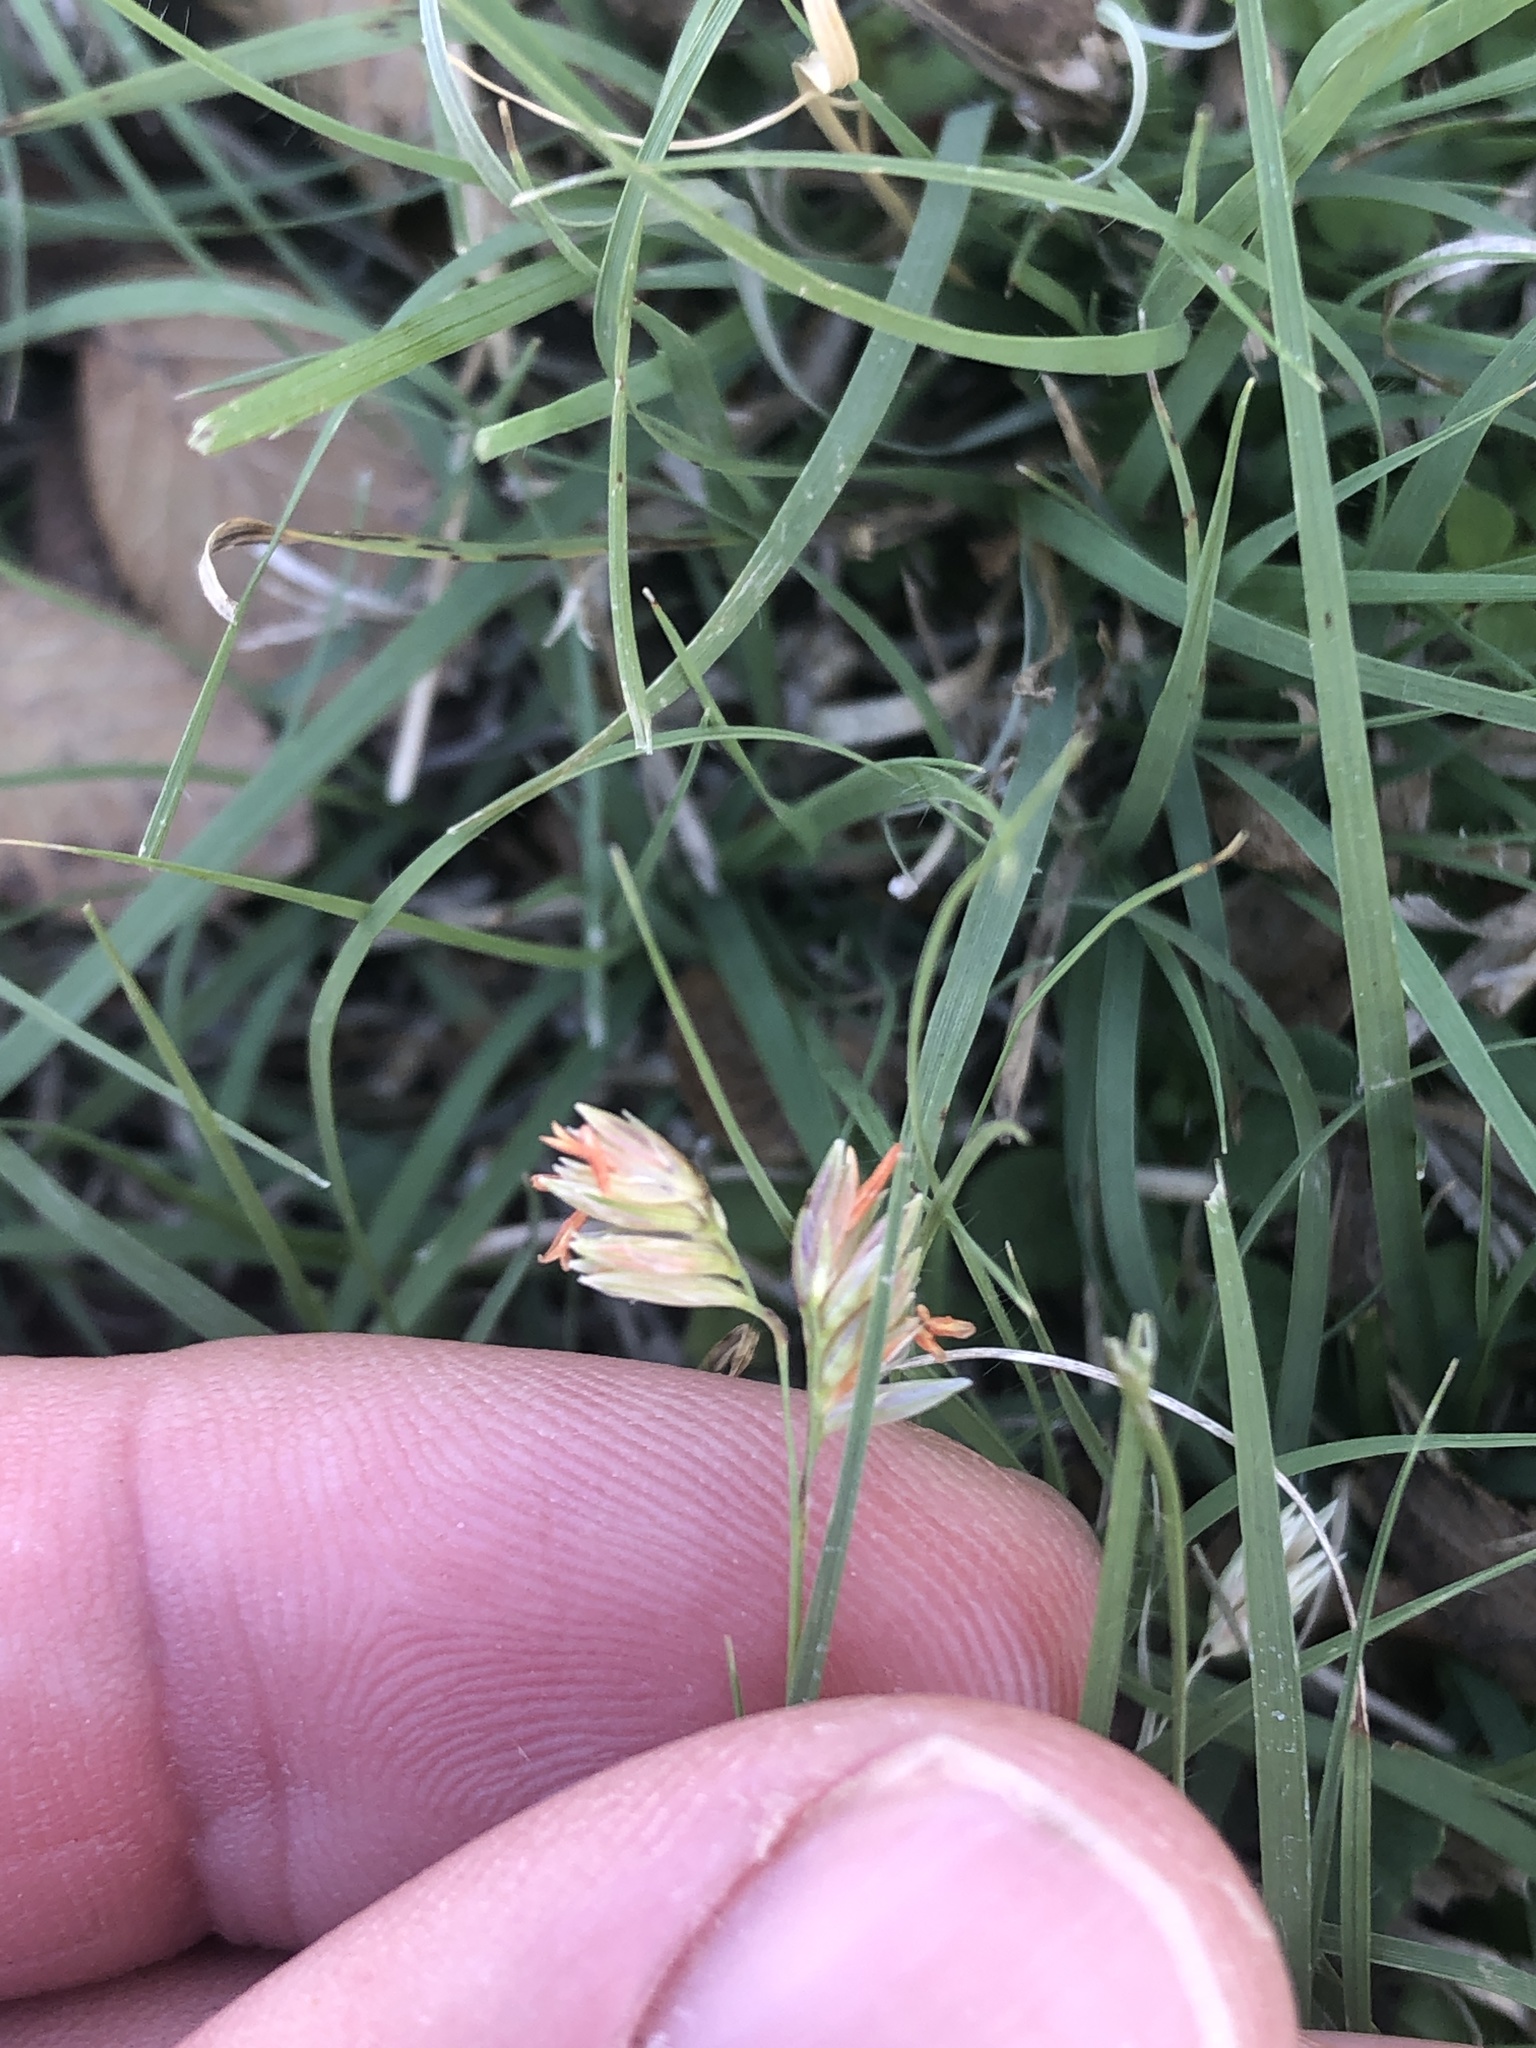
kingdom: Plantae
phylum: Tracheophyta
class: Liliopsida
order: Poales
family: Poaceae
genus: Bouteloua
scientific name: Bouteloua dactyloides
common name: Buffalo grass
